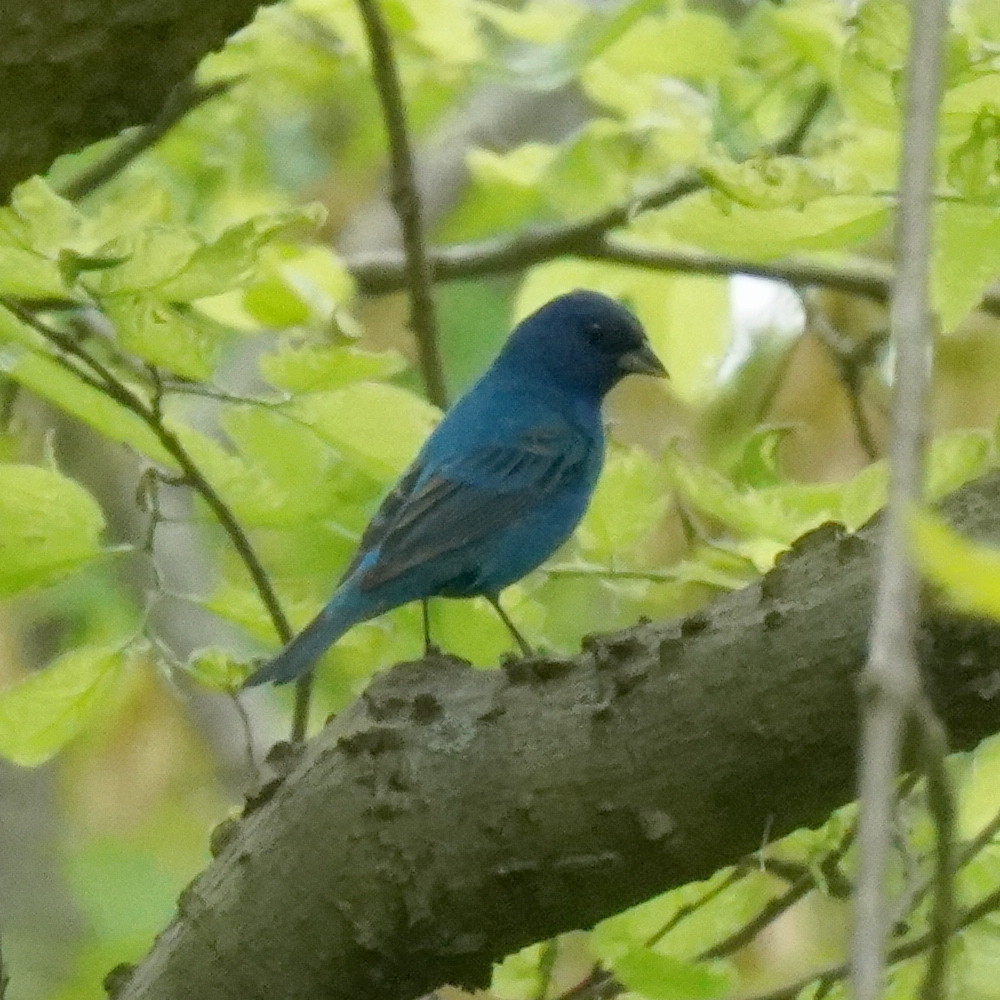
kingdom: Animalia
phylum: Chordata
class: Aves
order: Passeriformes
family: Cardinalidae
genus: Passerina
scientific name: Passerina cyanea
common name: Indigo bunting
